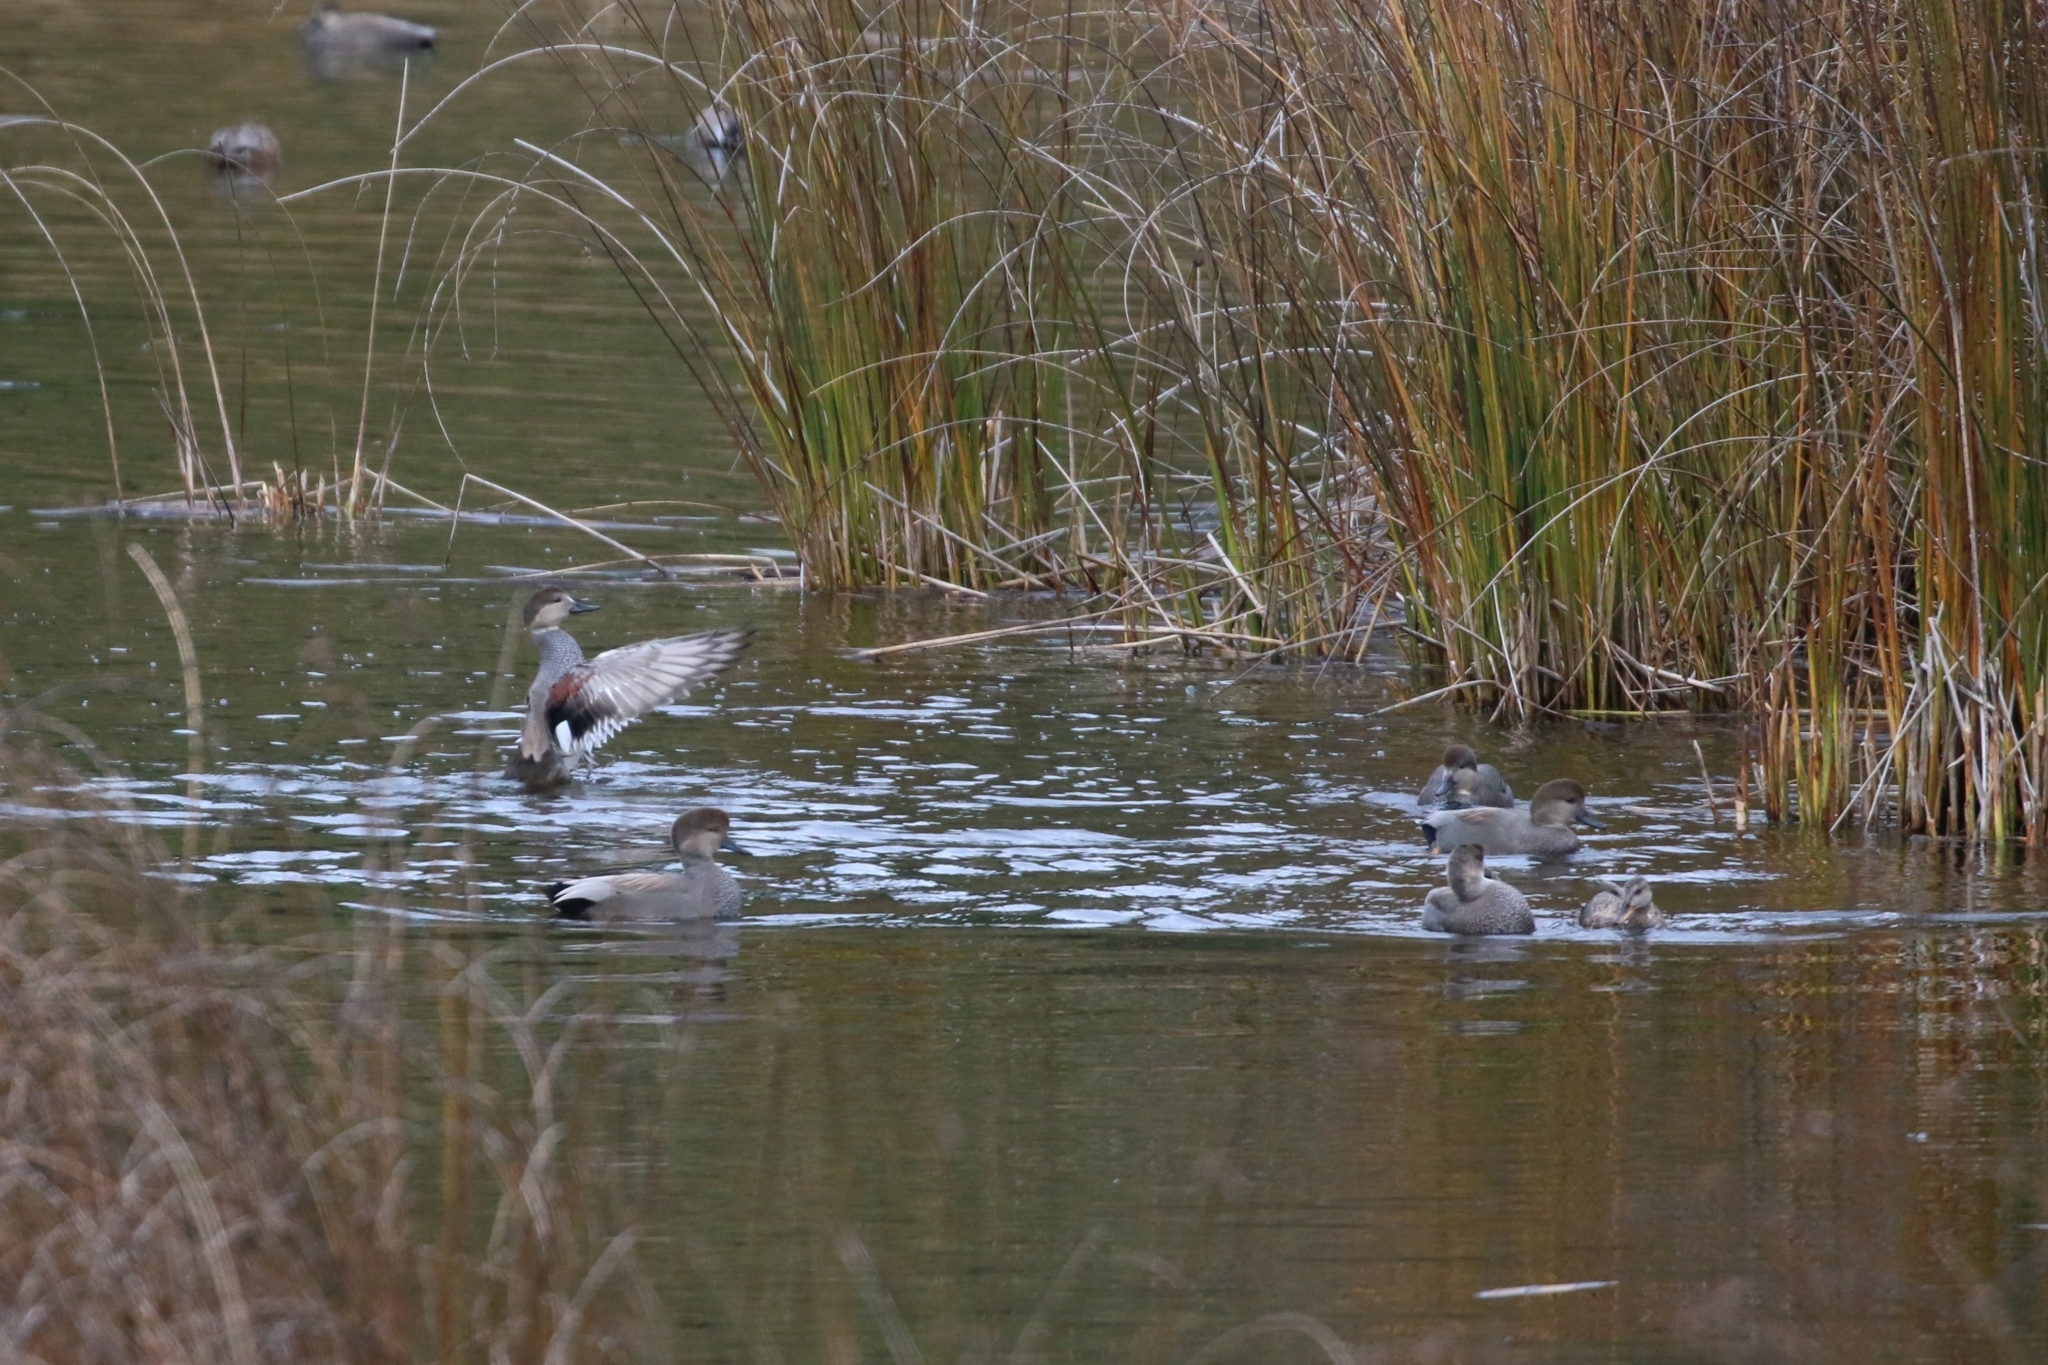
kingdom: Animalia
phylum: Chordata
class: Aves
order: Anseriformes
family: Anatidae
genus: Mareca
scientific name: Mareca strepera
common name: Gadwall
